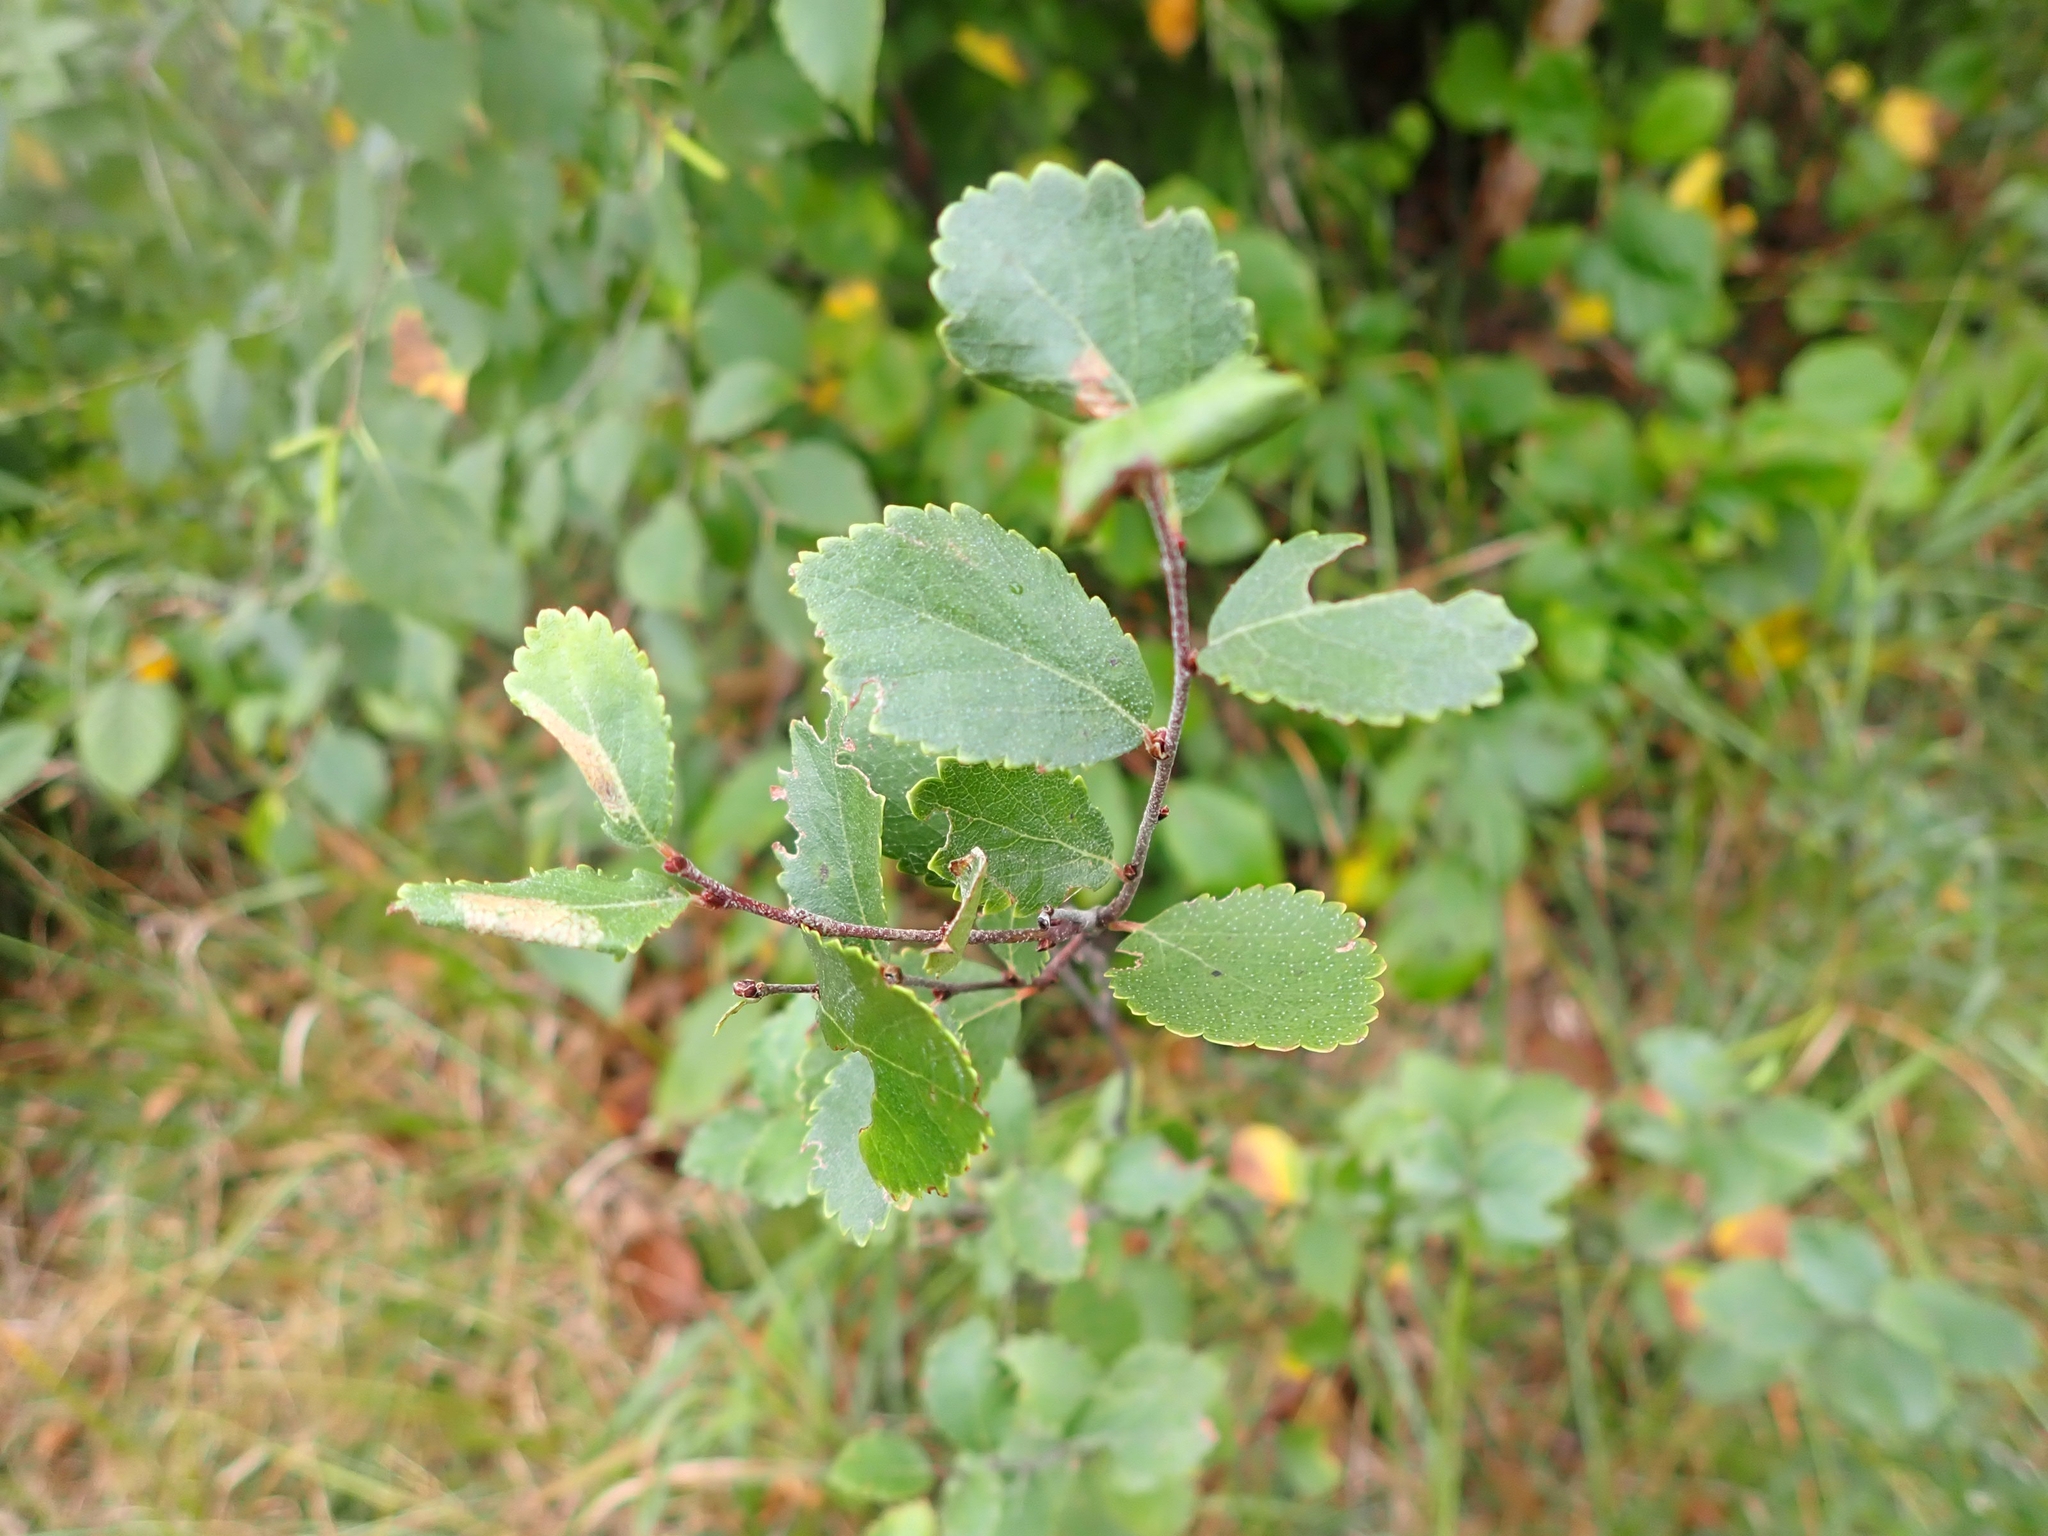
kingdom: Plantae
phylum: Tracheophyta
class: Magnoliopsida
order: Fagales
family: Betulaceae
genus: Betula
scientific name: Betula pumila
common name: Bog birch
